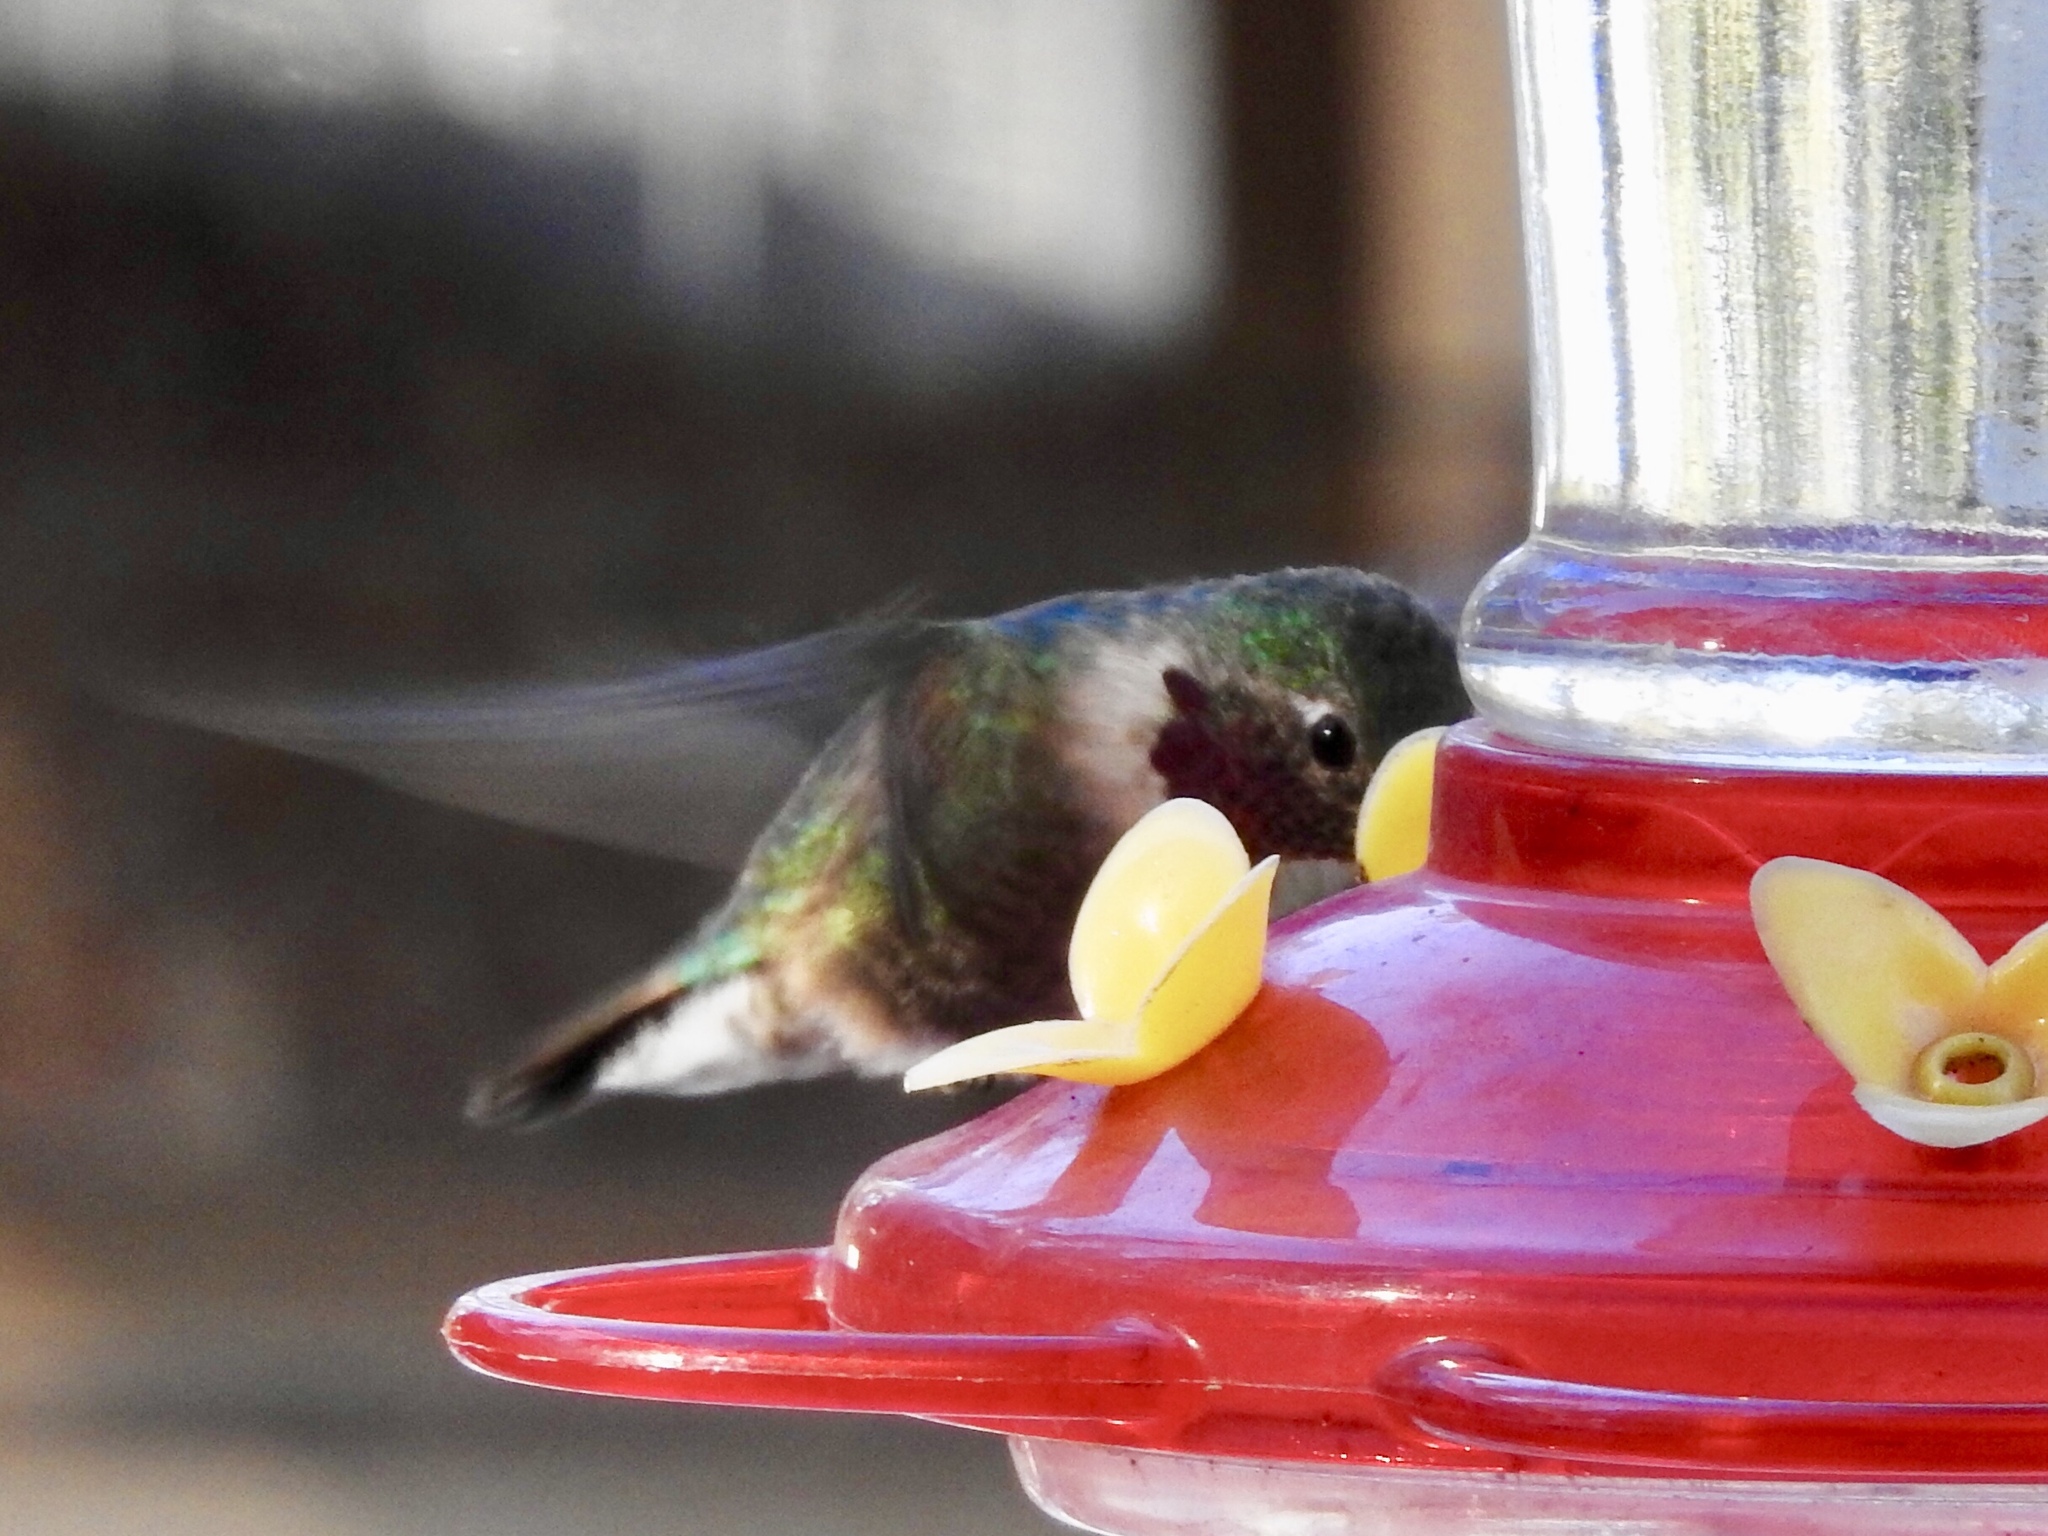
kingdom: Animalia
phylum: Chordata
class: Aves
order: Apodiformes
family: Trochilidae
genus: Selasphorus
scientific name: Selasphorus platycercus
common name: Broad-tailed hummingbird
